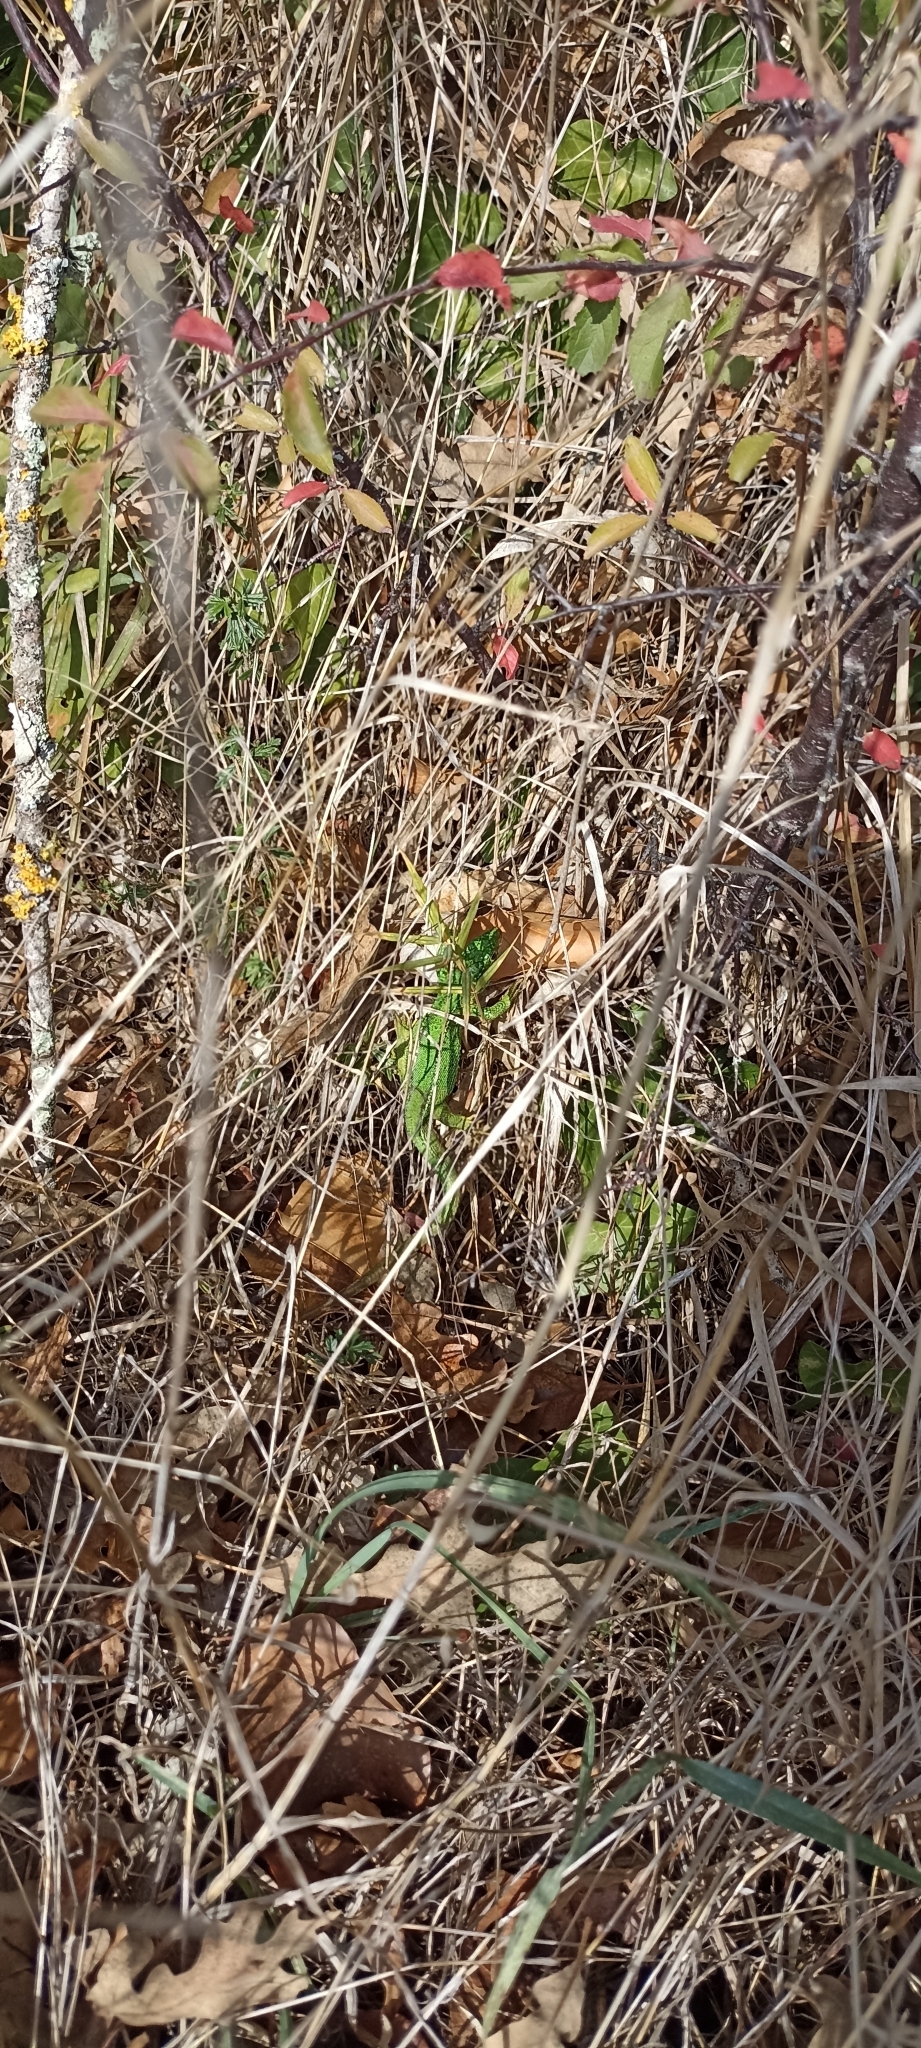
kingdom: Animalia
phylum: Chordata
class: Squamata
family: Lacertidae
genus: Lacerta
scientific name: Lacerta bilineata
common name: Western green lizard
